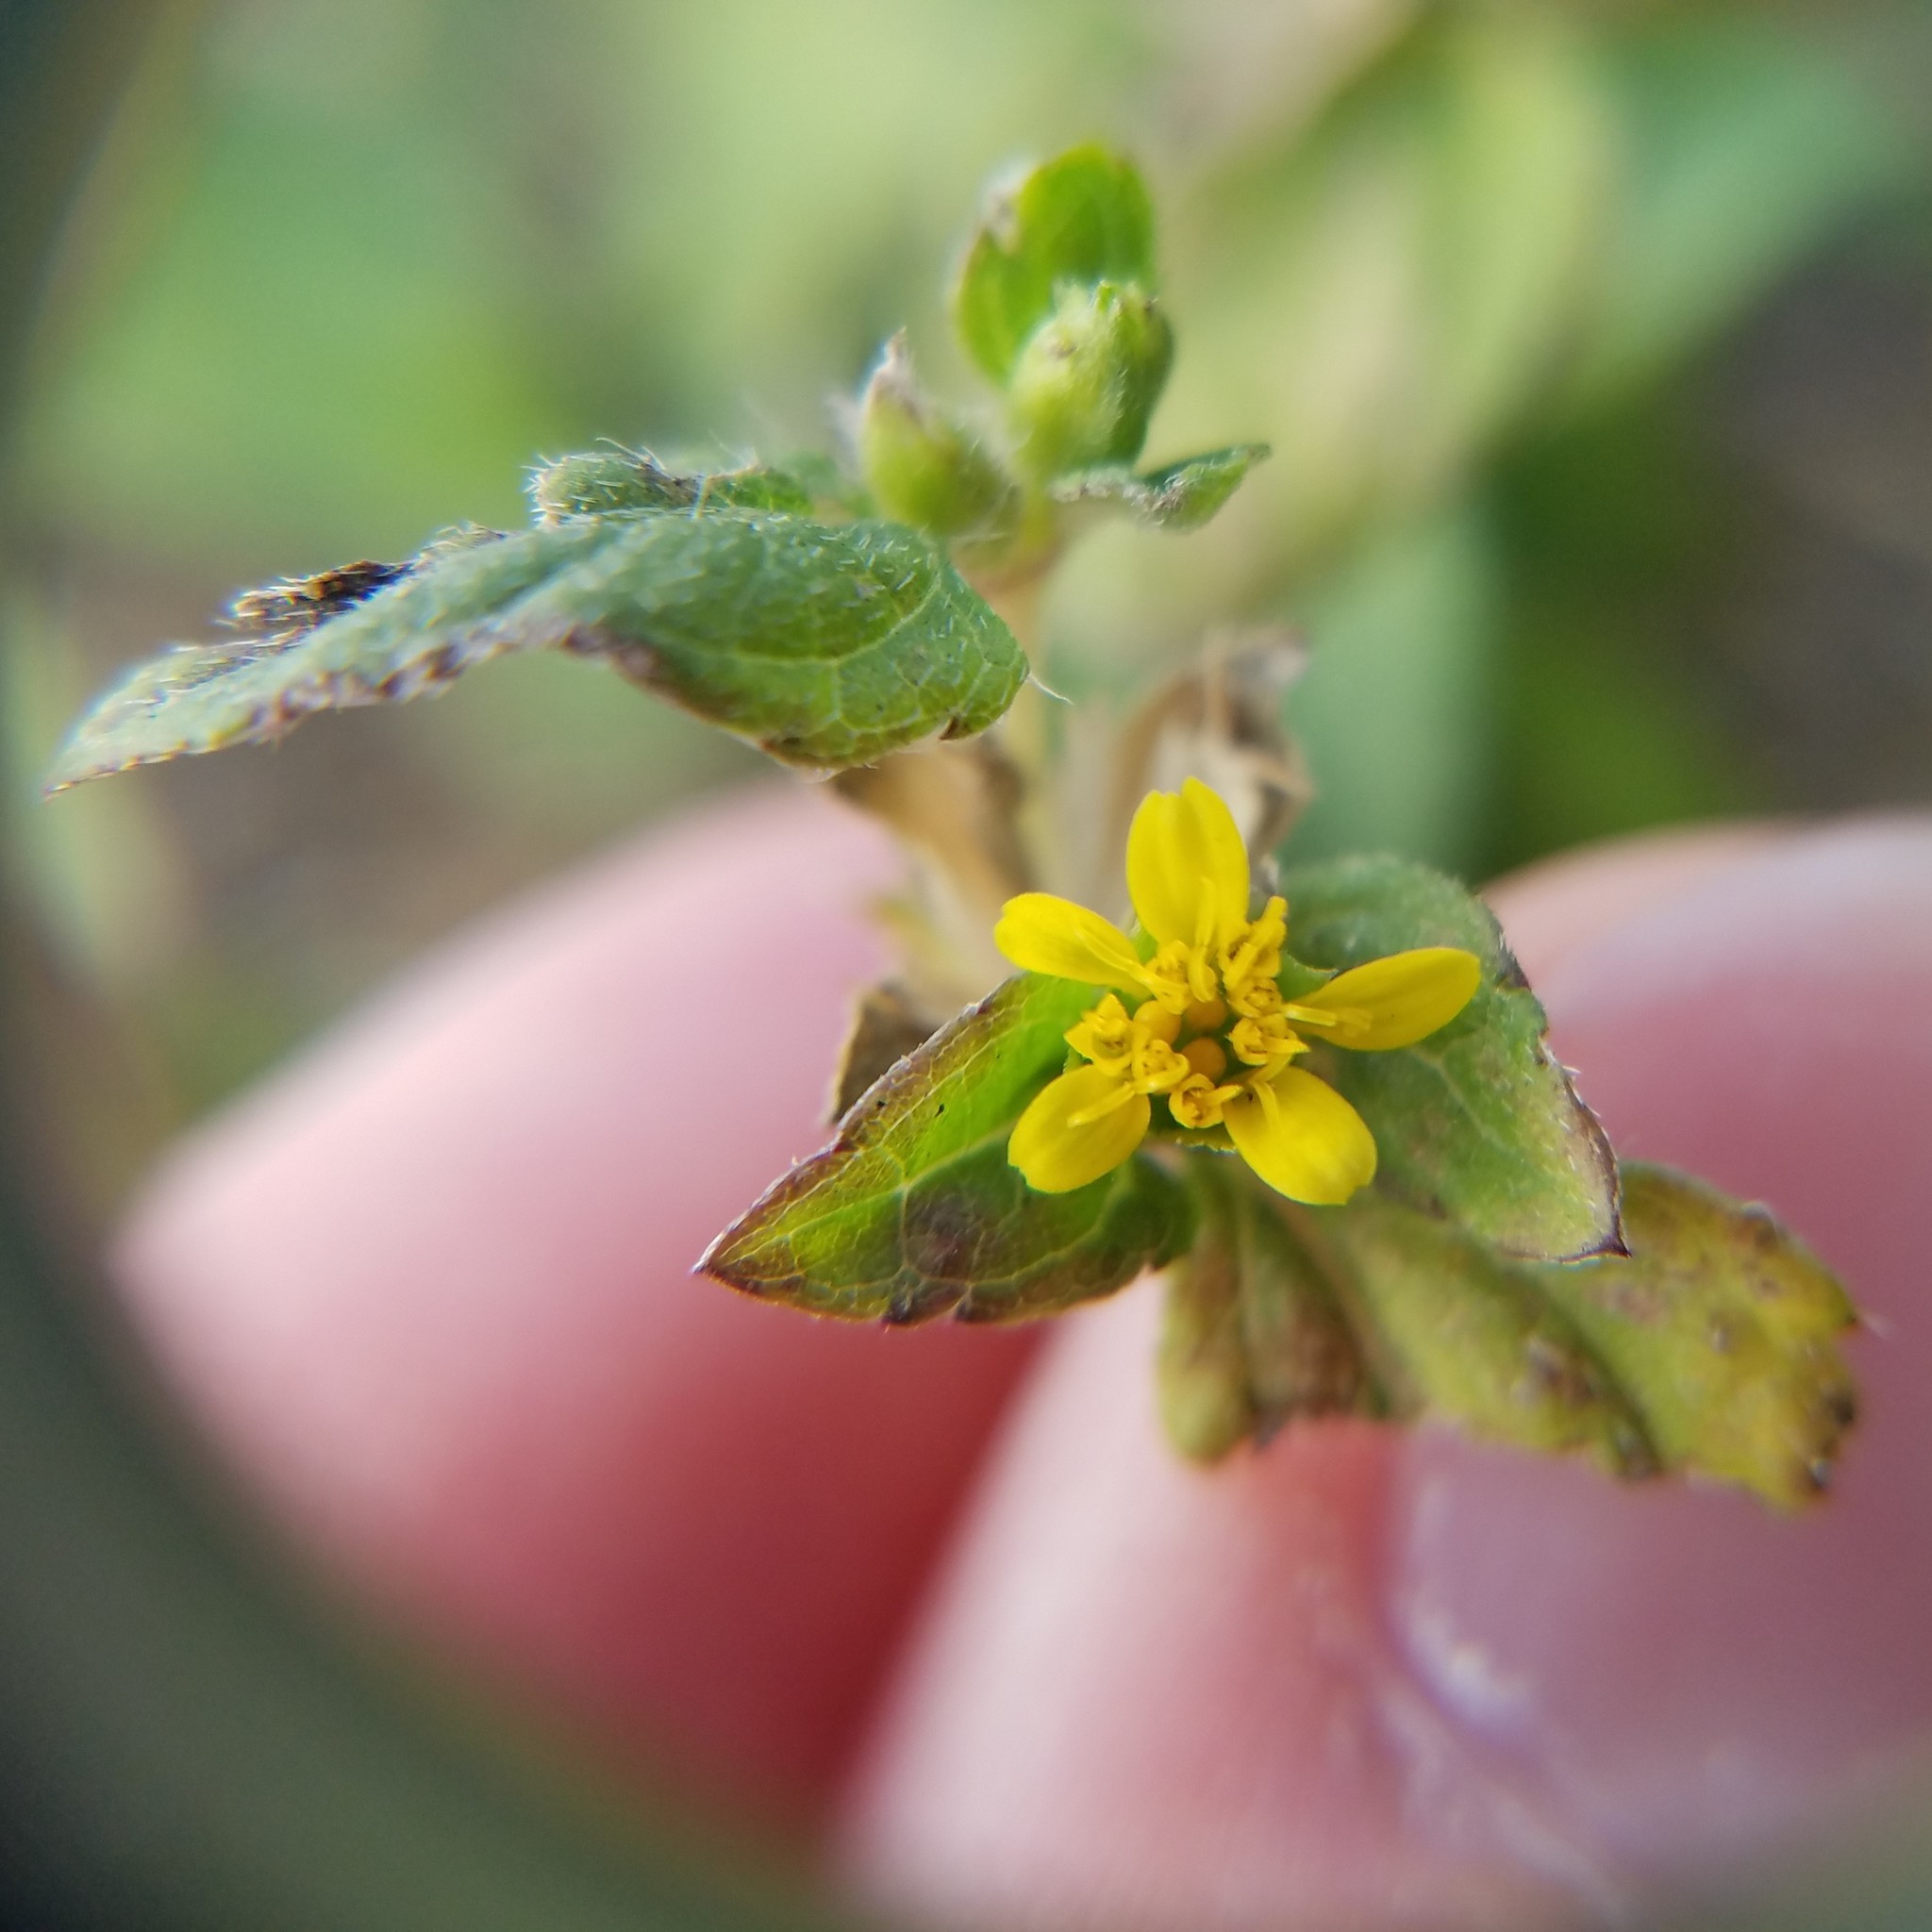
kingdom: Plantae
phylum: Tracheophyta
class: Magnoliopsida
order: Asterales
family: Asteraceae
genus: Calyptocarpus
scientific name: Calyptocarpus vialis
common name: Straggler daisy
